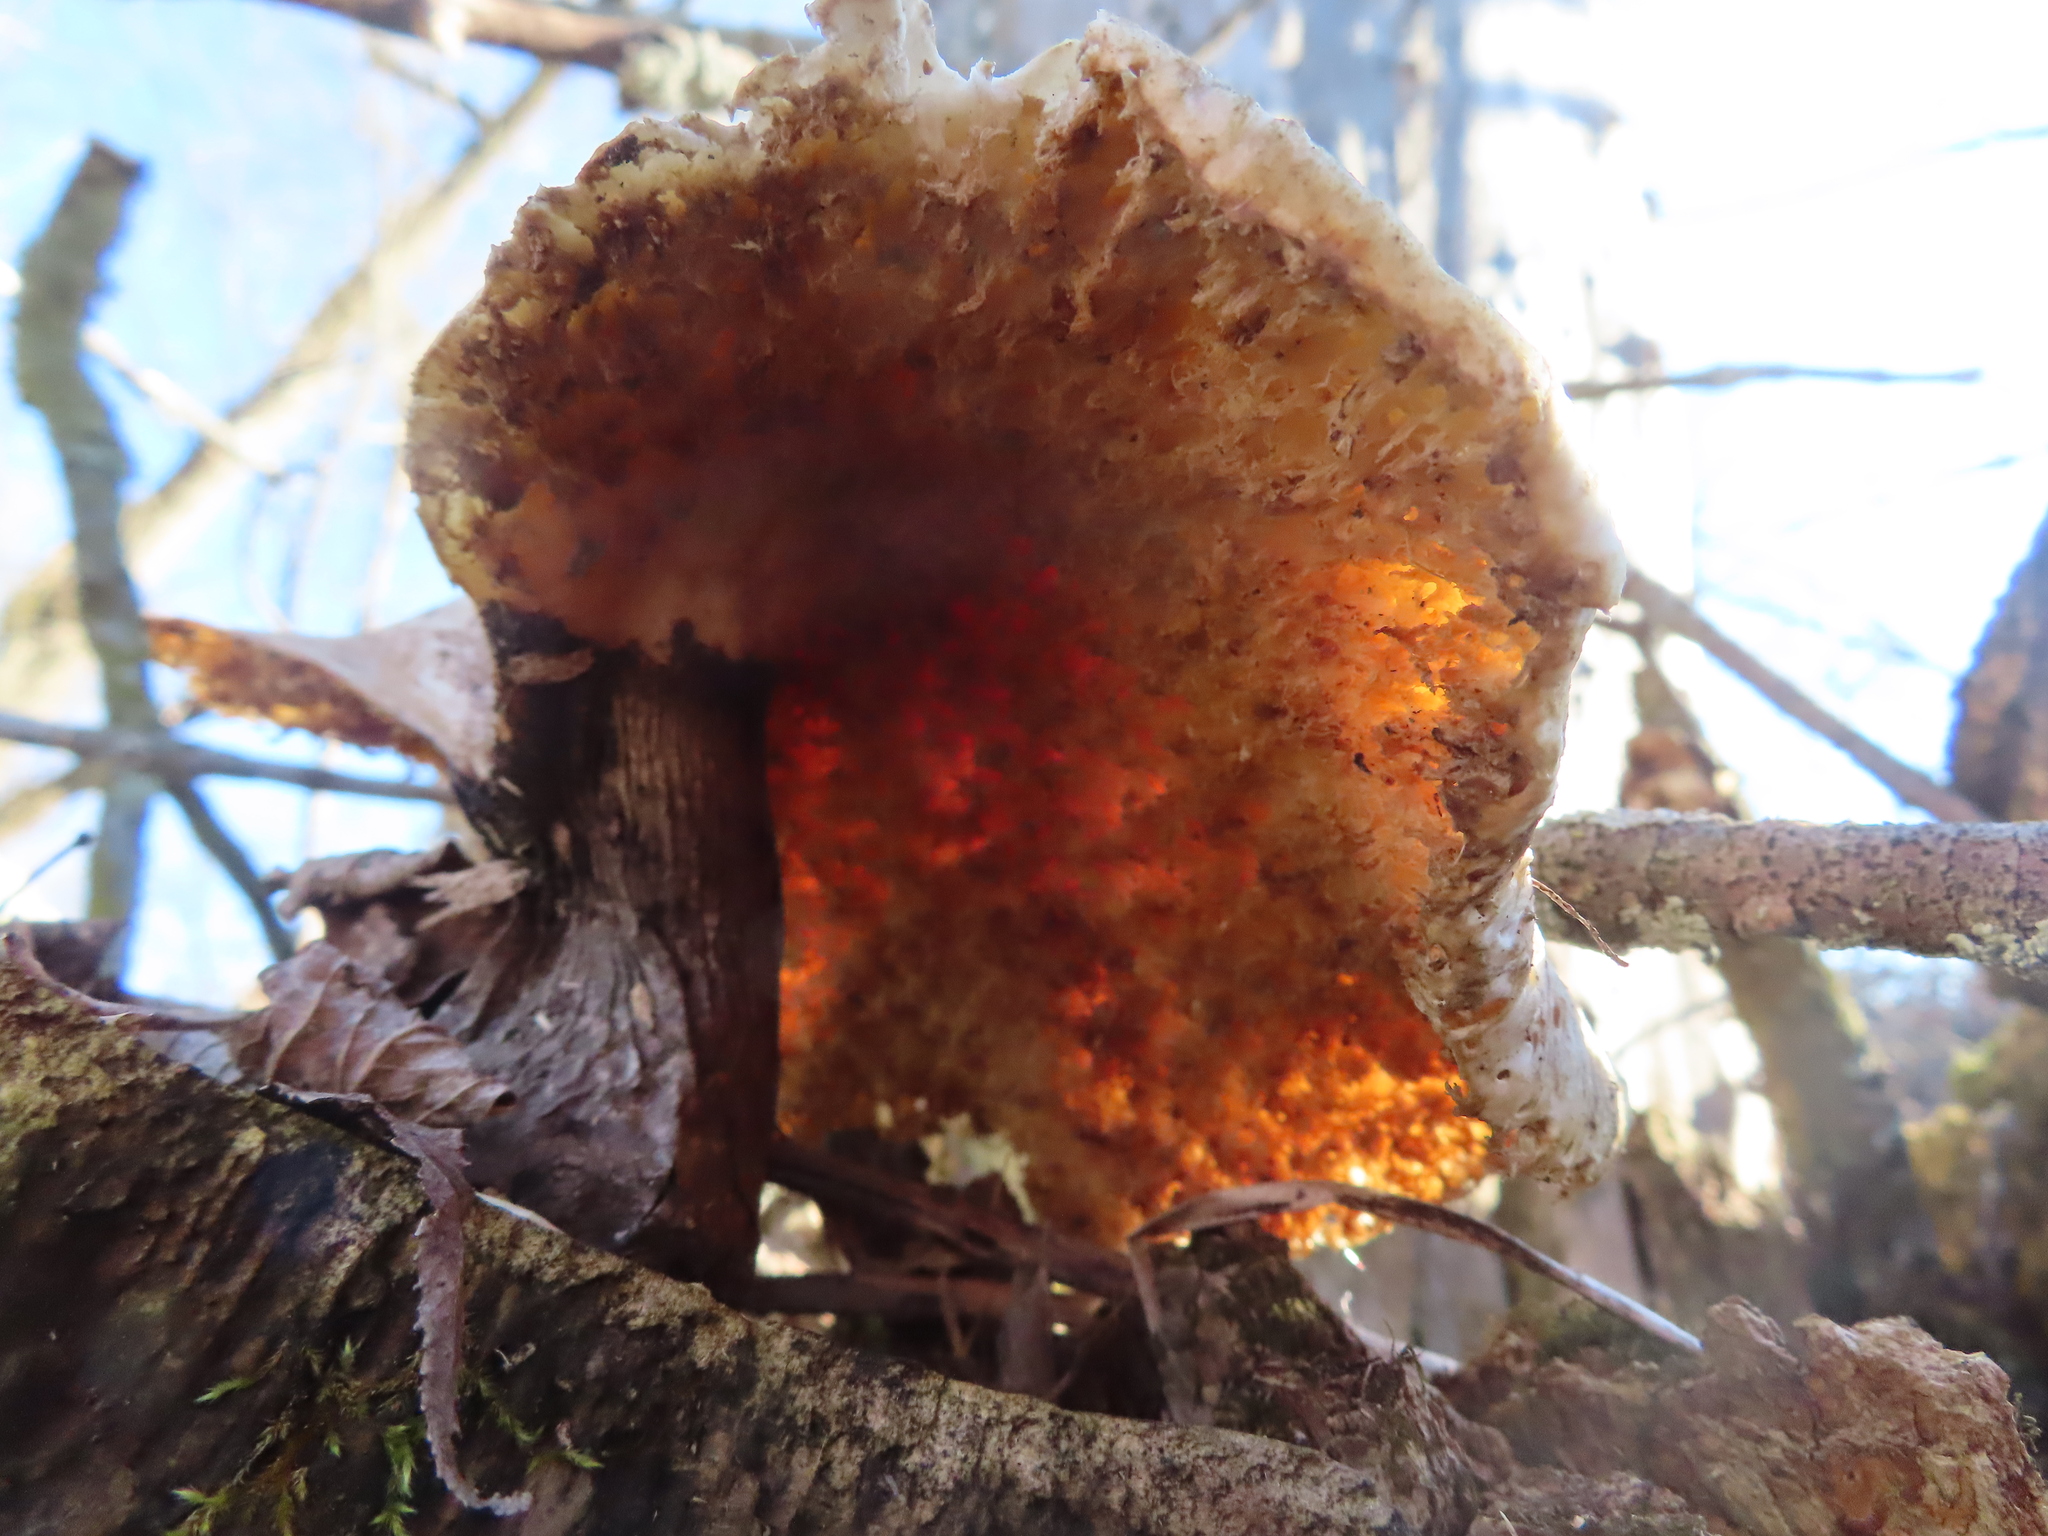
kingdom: Fungi
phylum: Basidiomycota
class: Agaricomycetes
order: Polyporales
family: Polyporaceae
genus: Cerioporus
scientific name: Cerioporus squamosus
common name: Dryad's saddle
